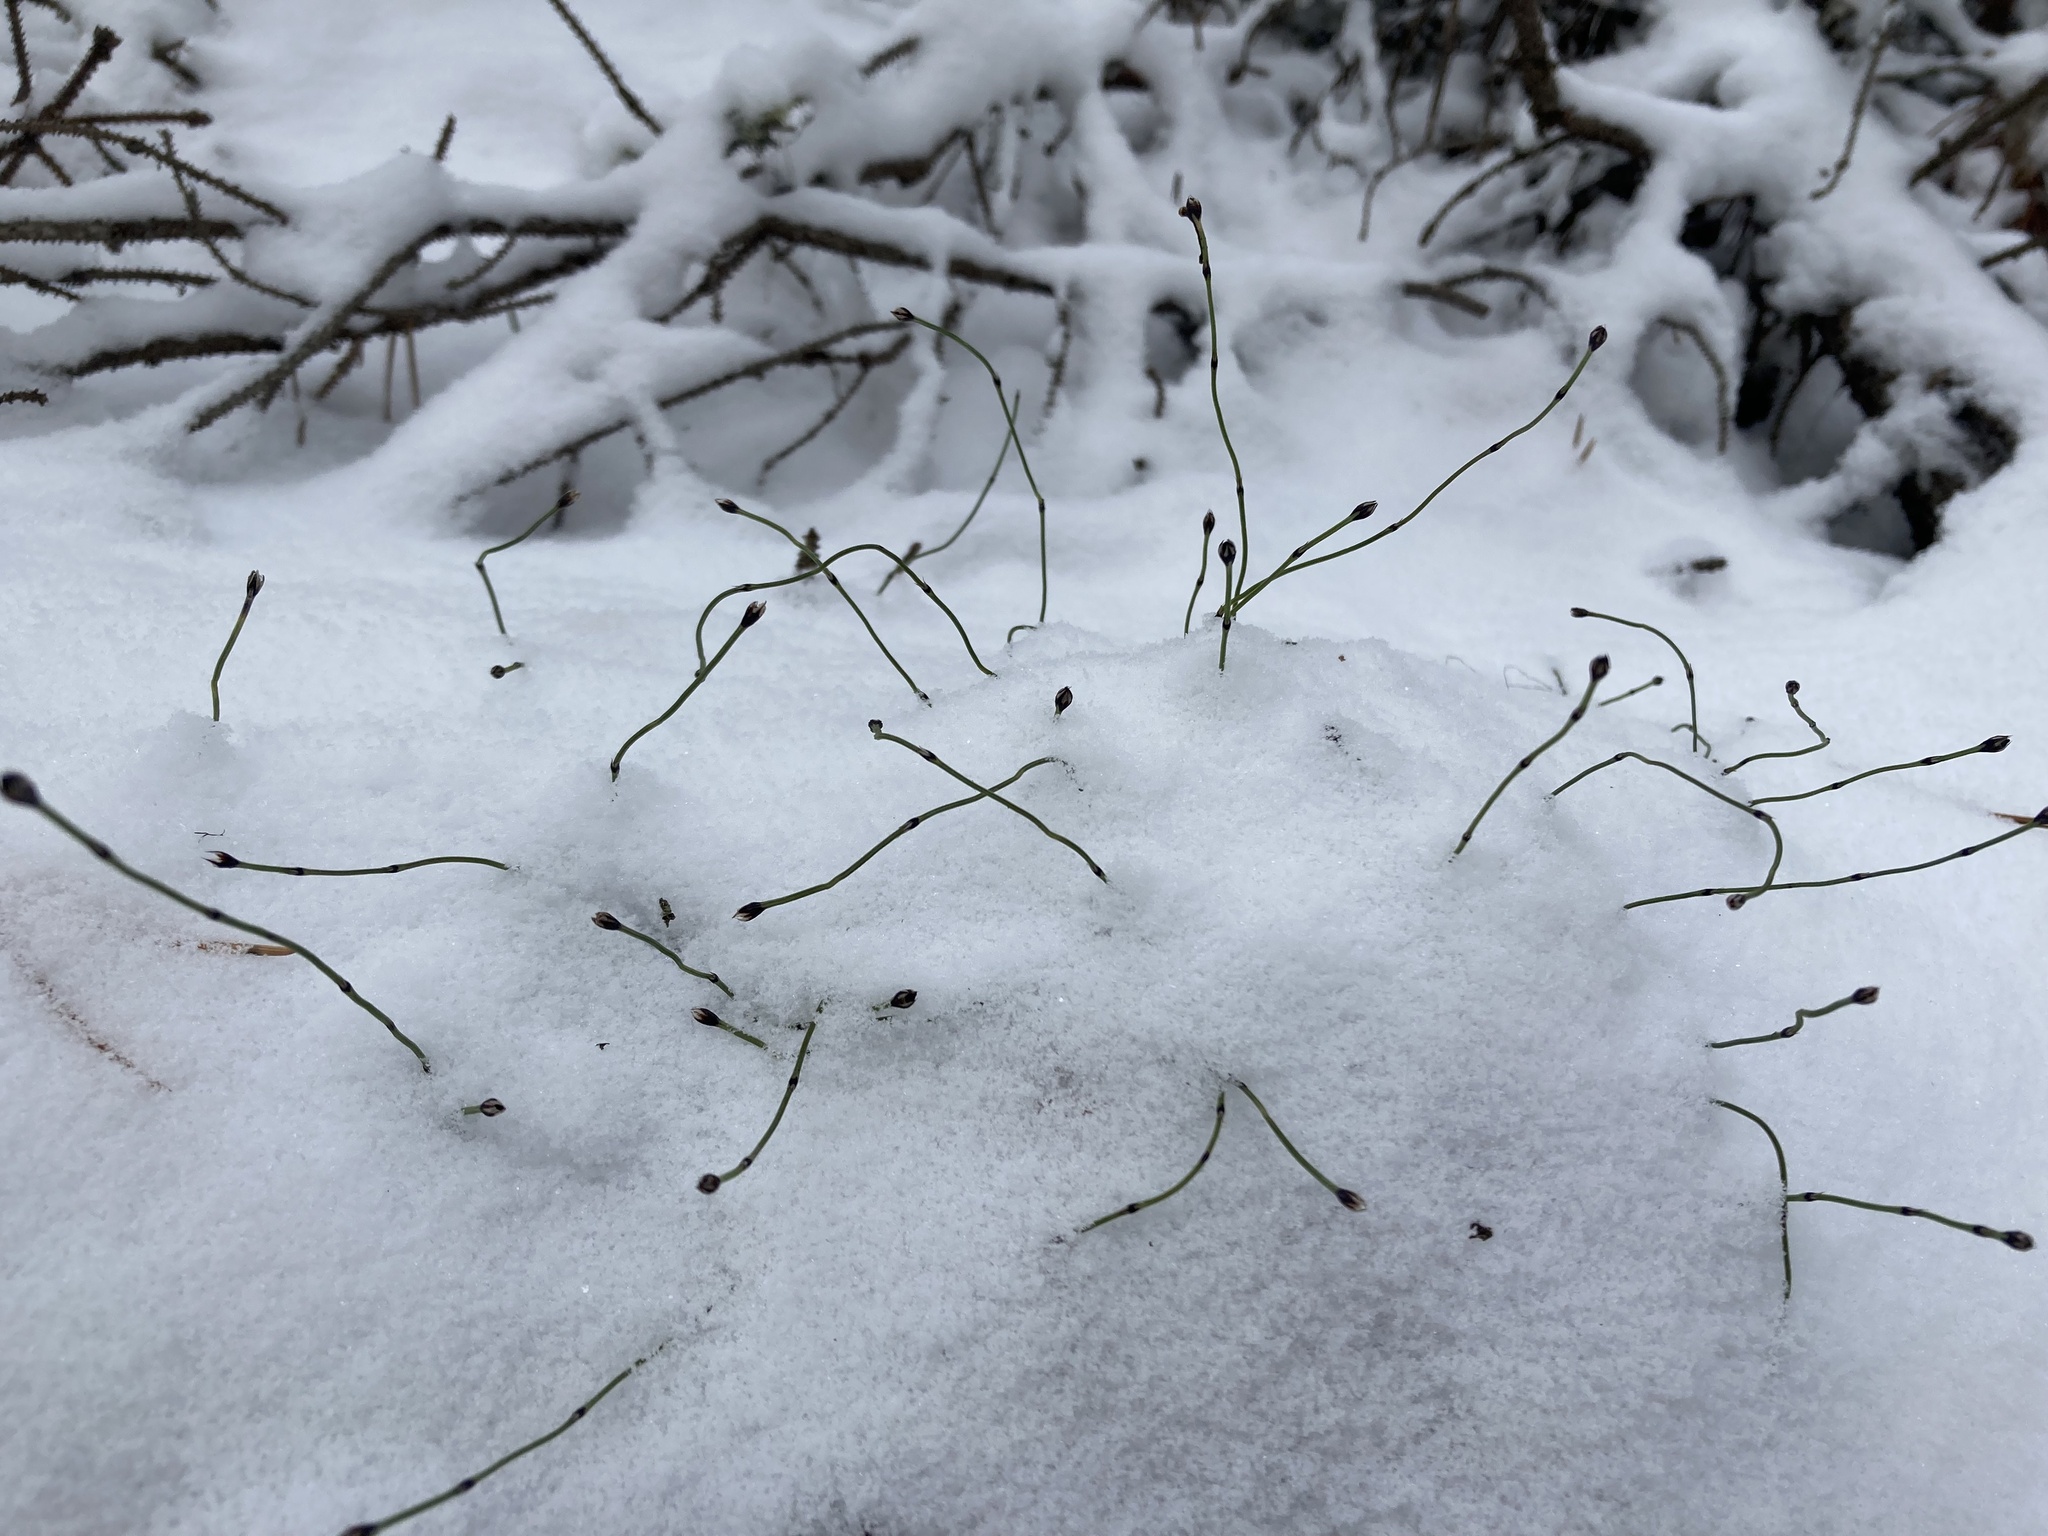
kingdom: Plantae
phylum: Tracheophyta
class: Polypodiopsida
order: Equisetales
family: Equisetaceae
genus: Equisetum
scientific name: Equisetum scirpoides
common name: Delicate horsetail
